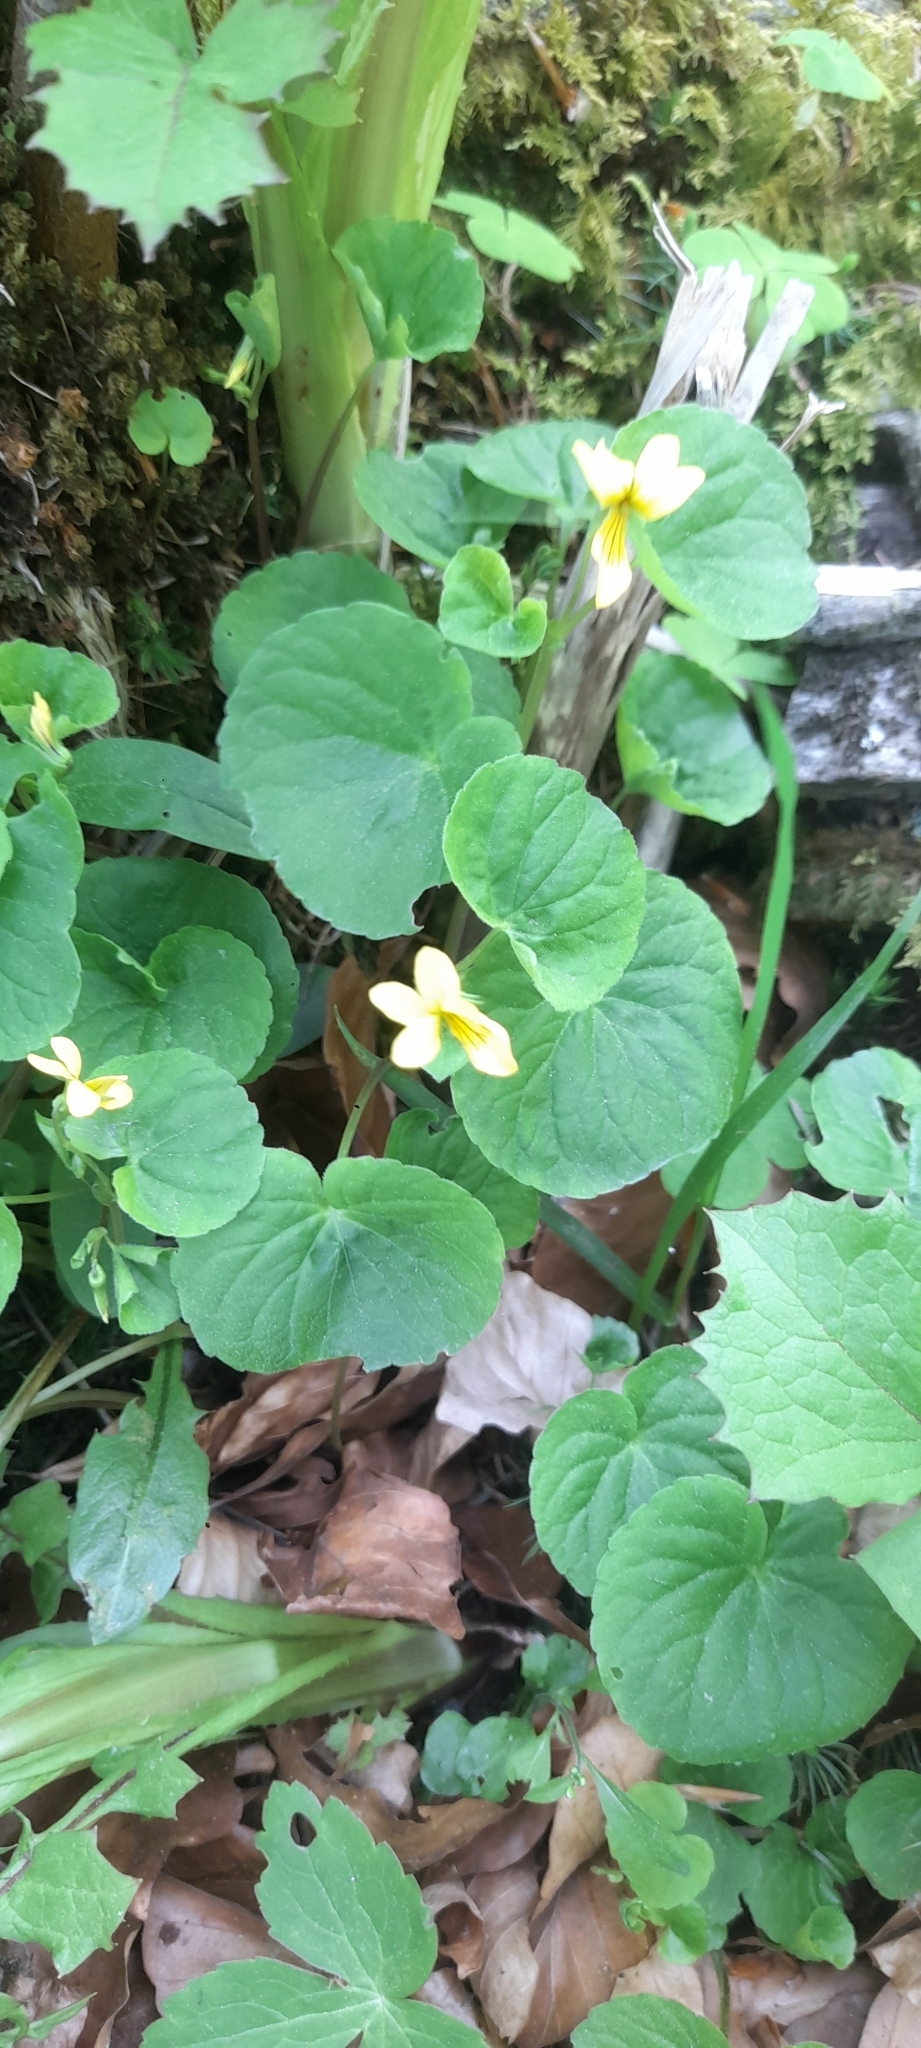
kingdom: Plantae
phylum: Tracheophyta
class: Magnoliopsida
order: Malpighiales
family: Violaceae
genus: Viola
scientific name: Viola biflora
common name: Alpine yellow violet
